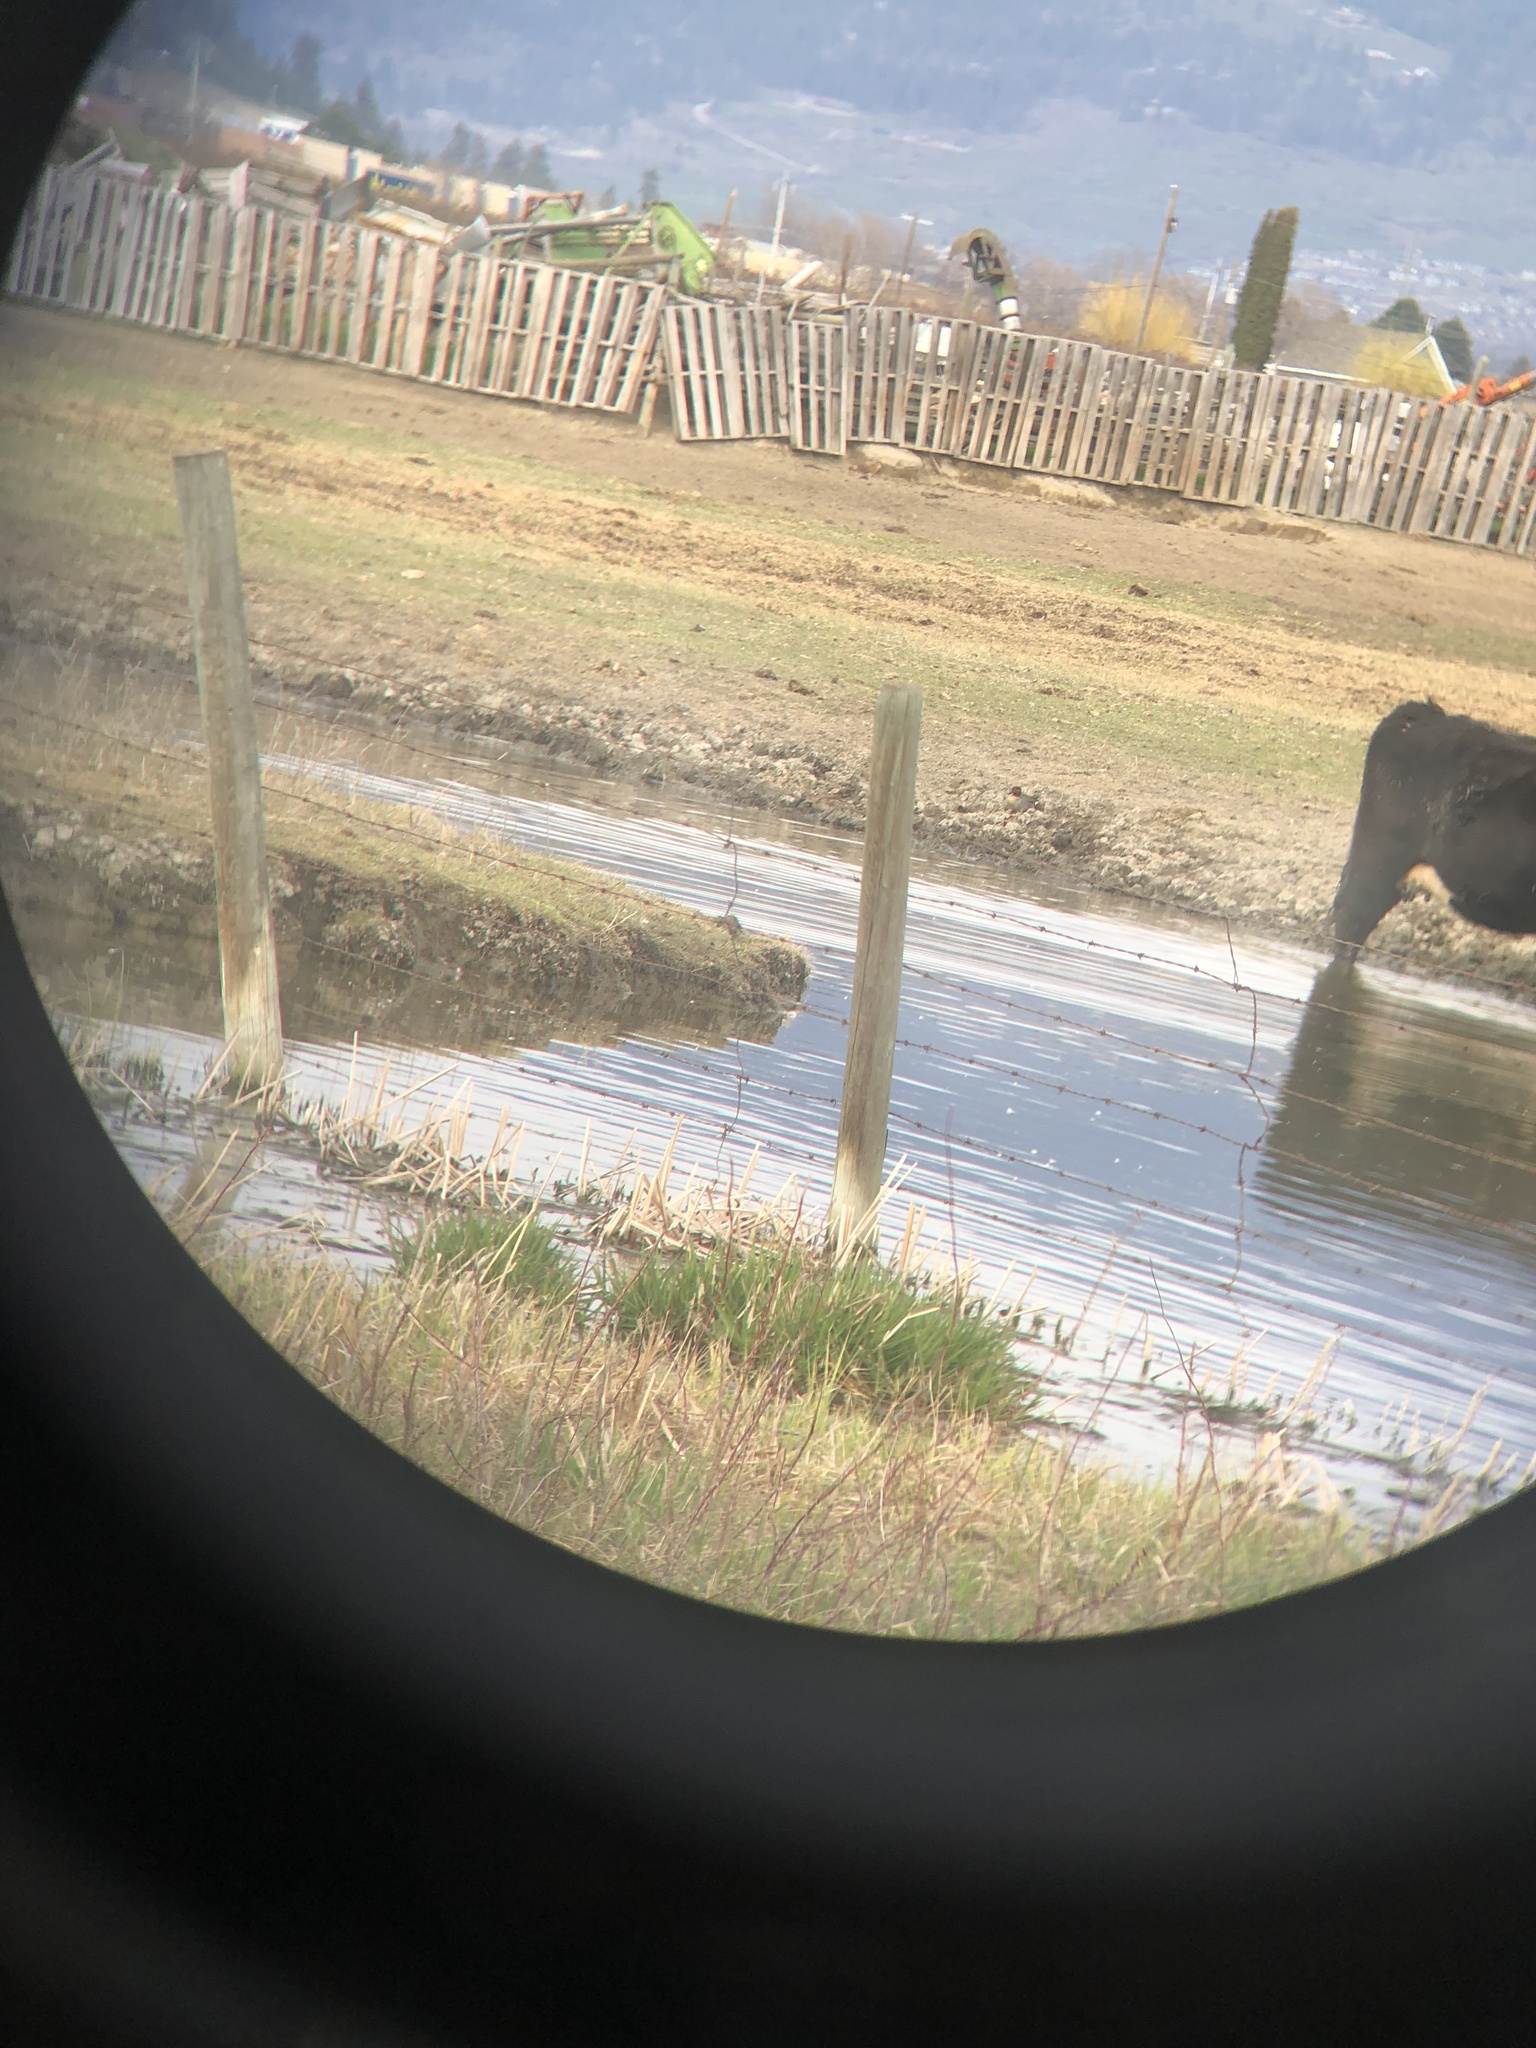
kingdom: Animalia
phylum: Chordata
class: Aves
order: Anseriformes
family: Anatidae
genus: Anas
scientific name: Anas crecca
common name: Eurasian teal
